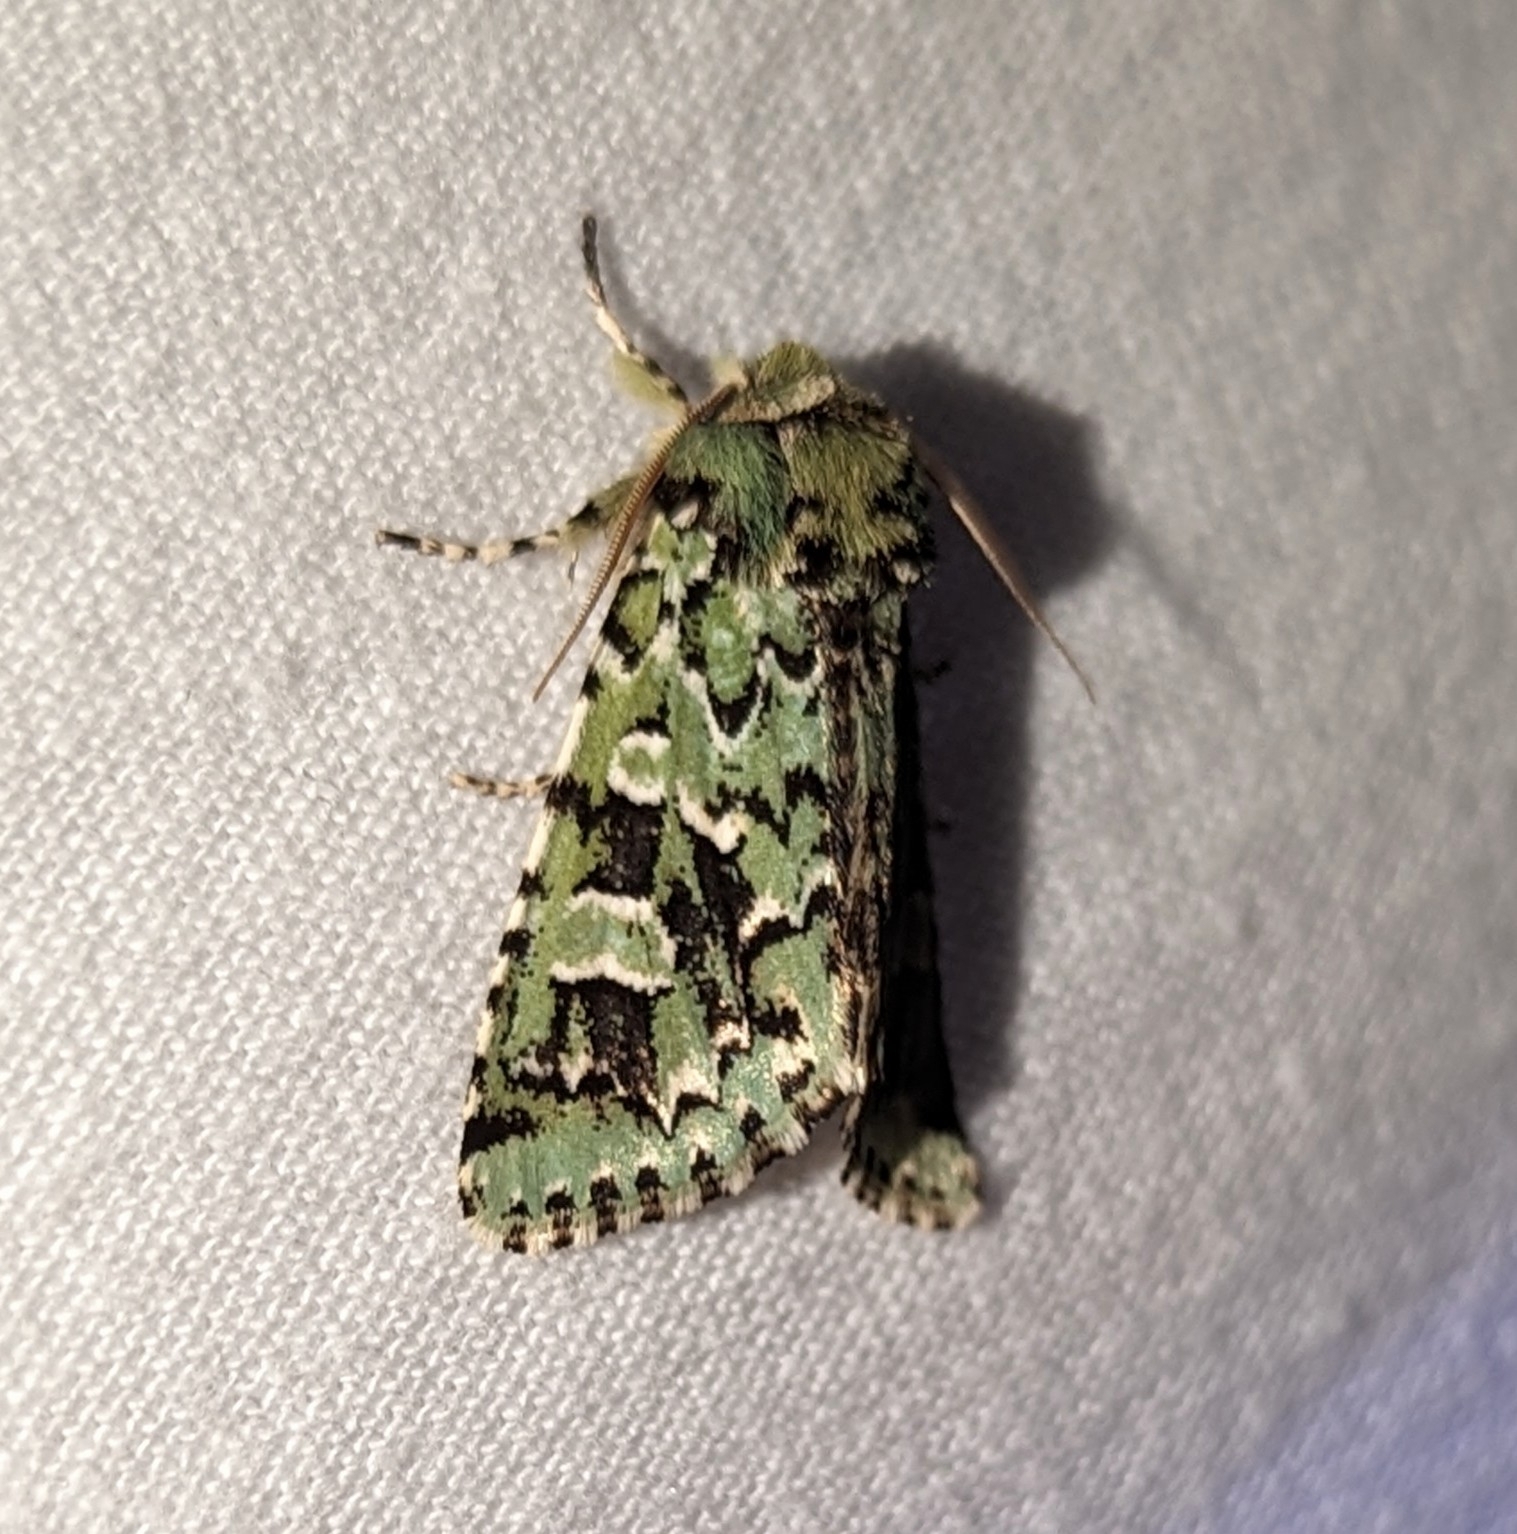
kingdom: Animalia
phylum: Arthropoda
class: Insecta
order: Lepidoptera
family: Noctuidae
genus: Feralia
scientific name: Feralia comstocki
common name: Comstock's sallow
